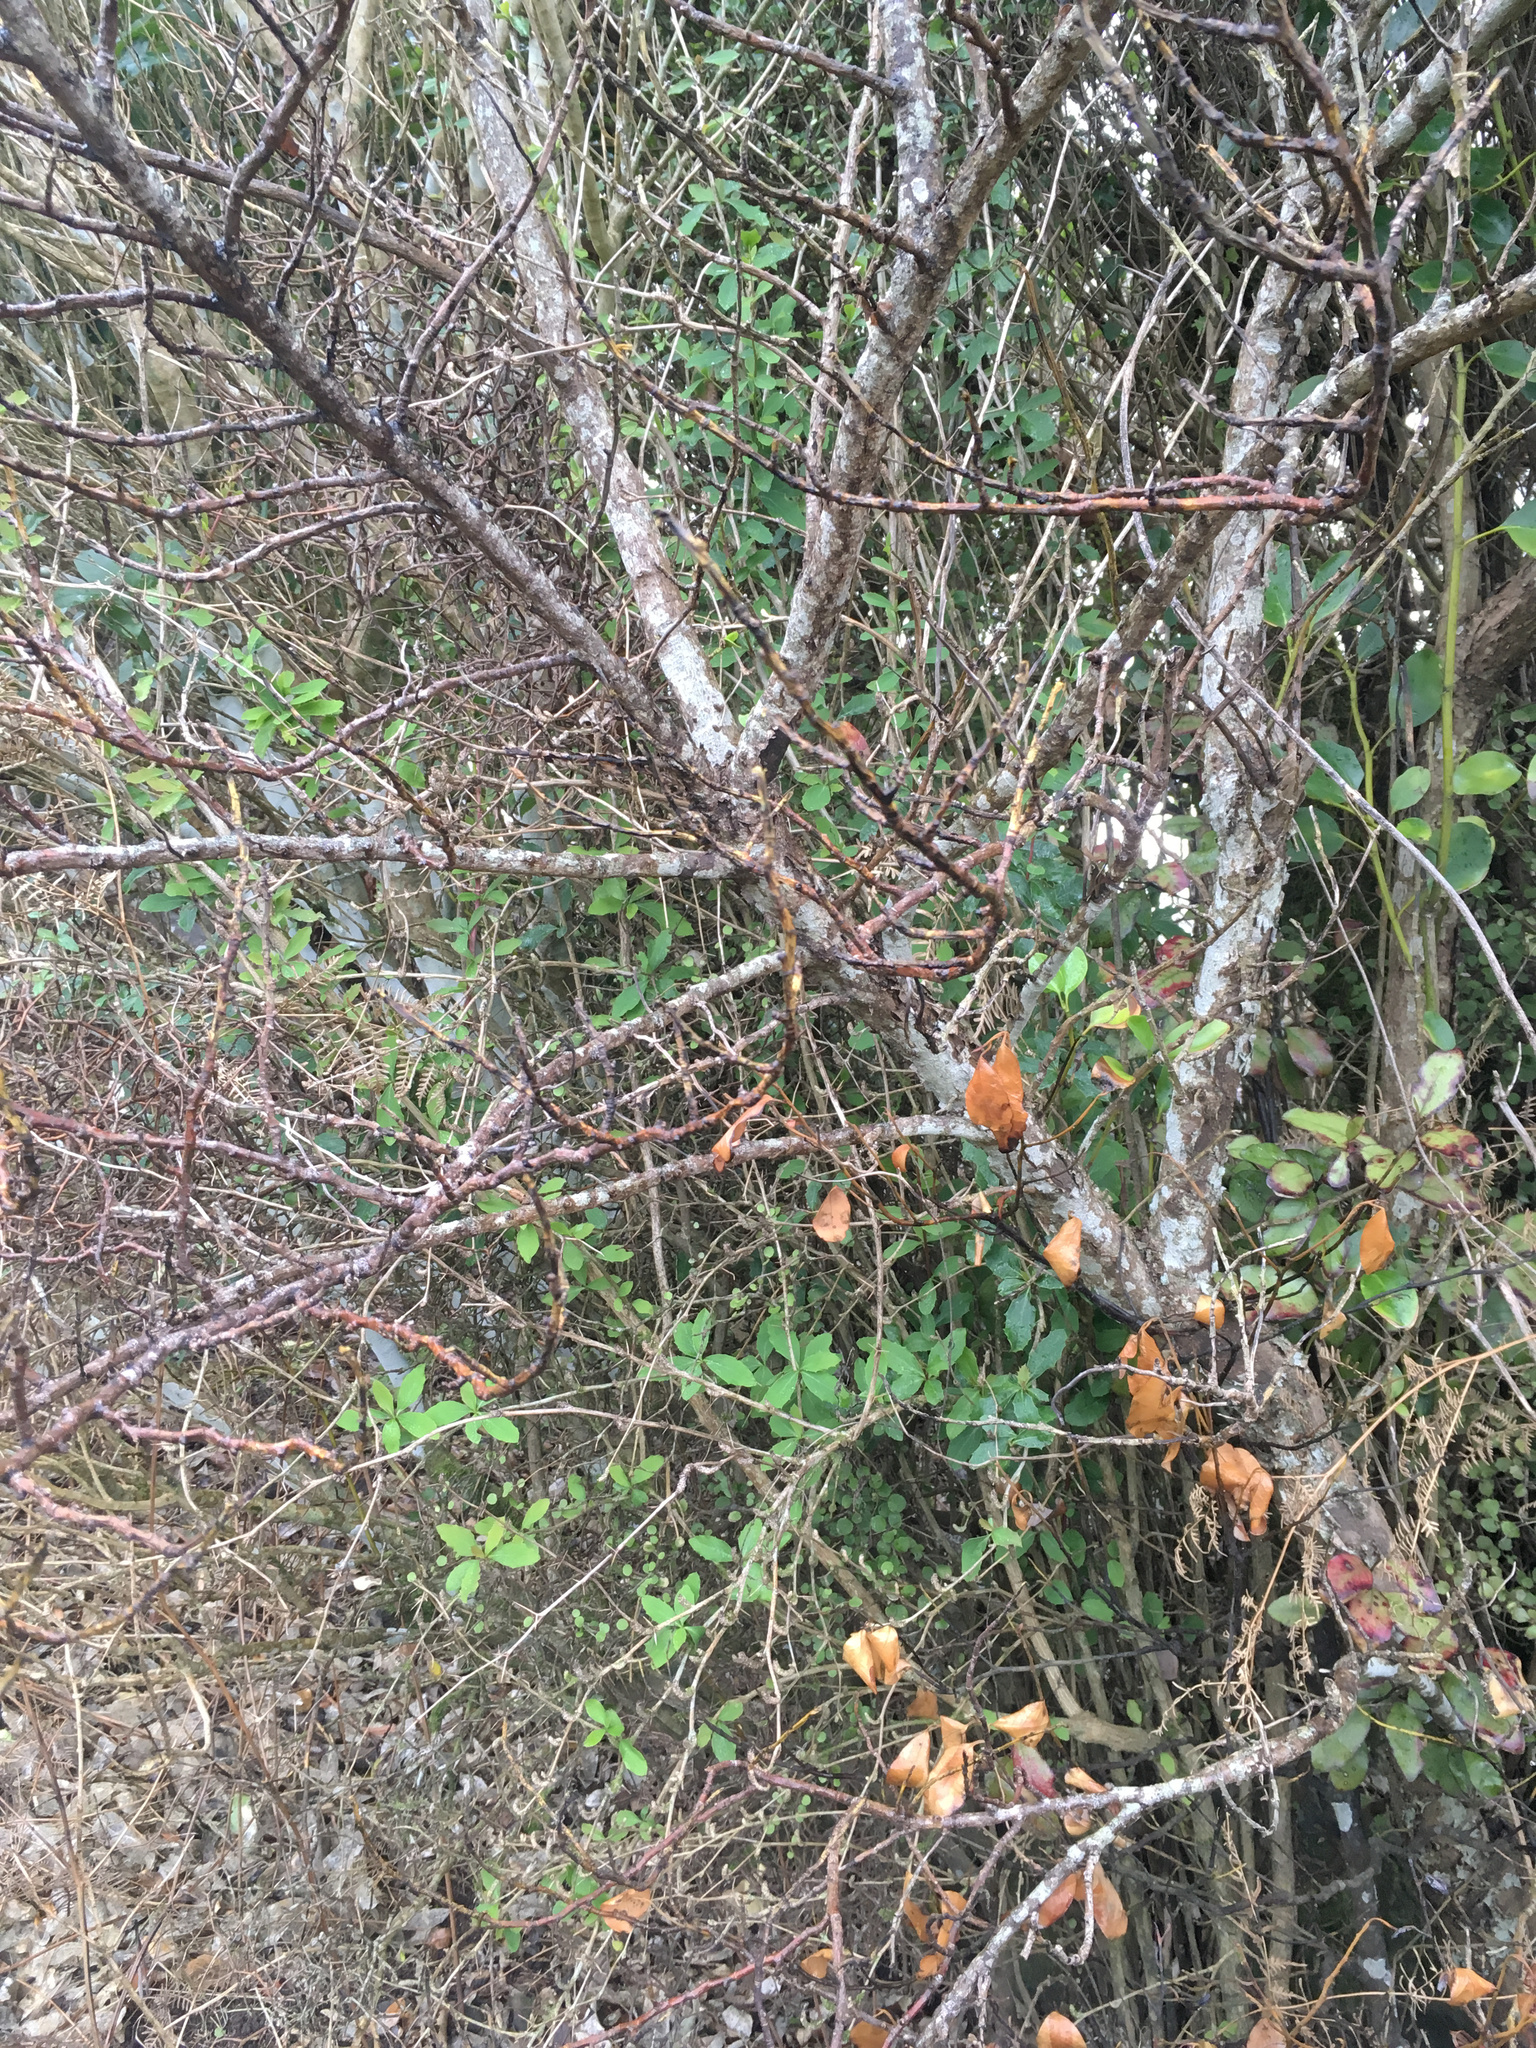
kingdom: Plantae
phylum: Tracheophyta
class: Magnoliopsida
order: Ranunculales
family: Berberidaceae
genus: Berberis
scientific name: Berberis glaucocarpa
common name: Great barberry
